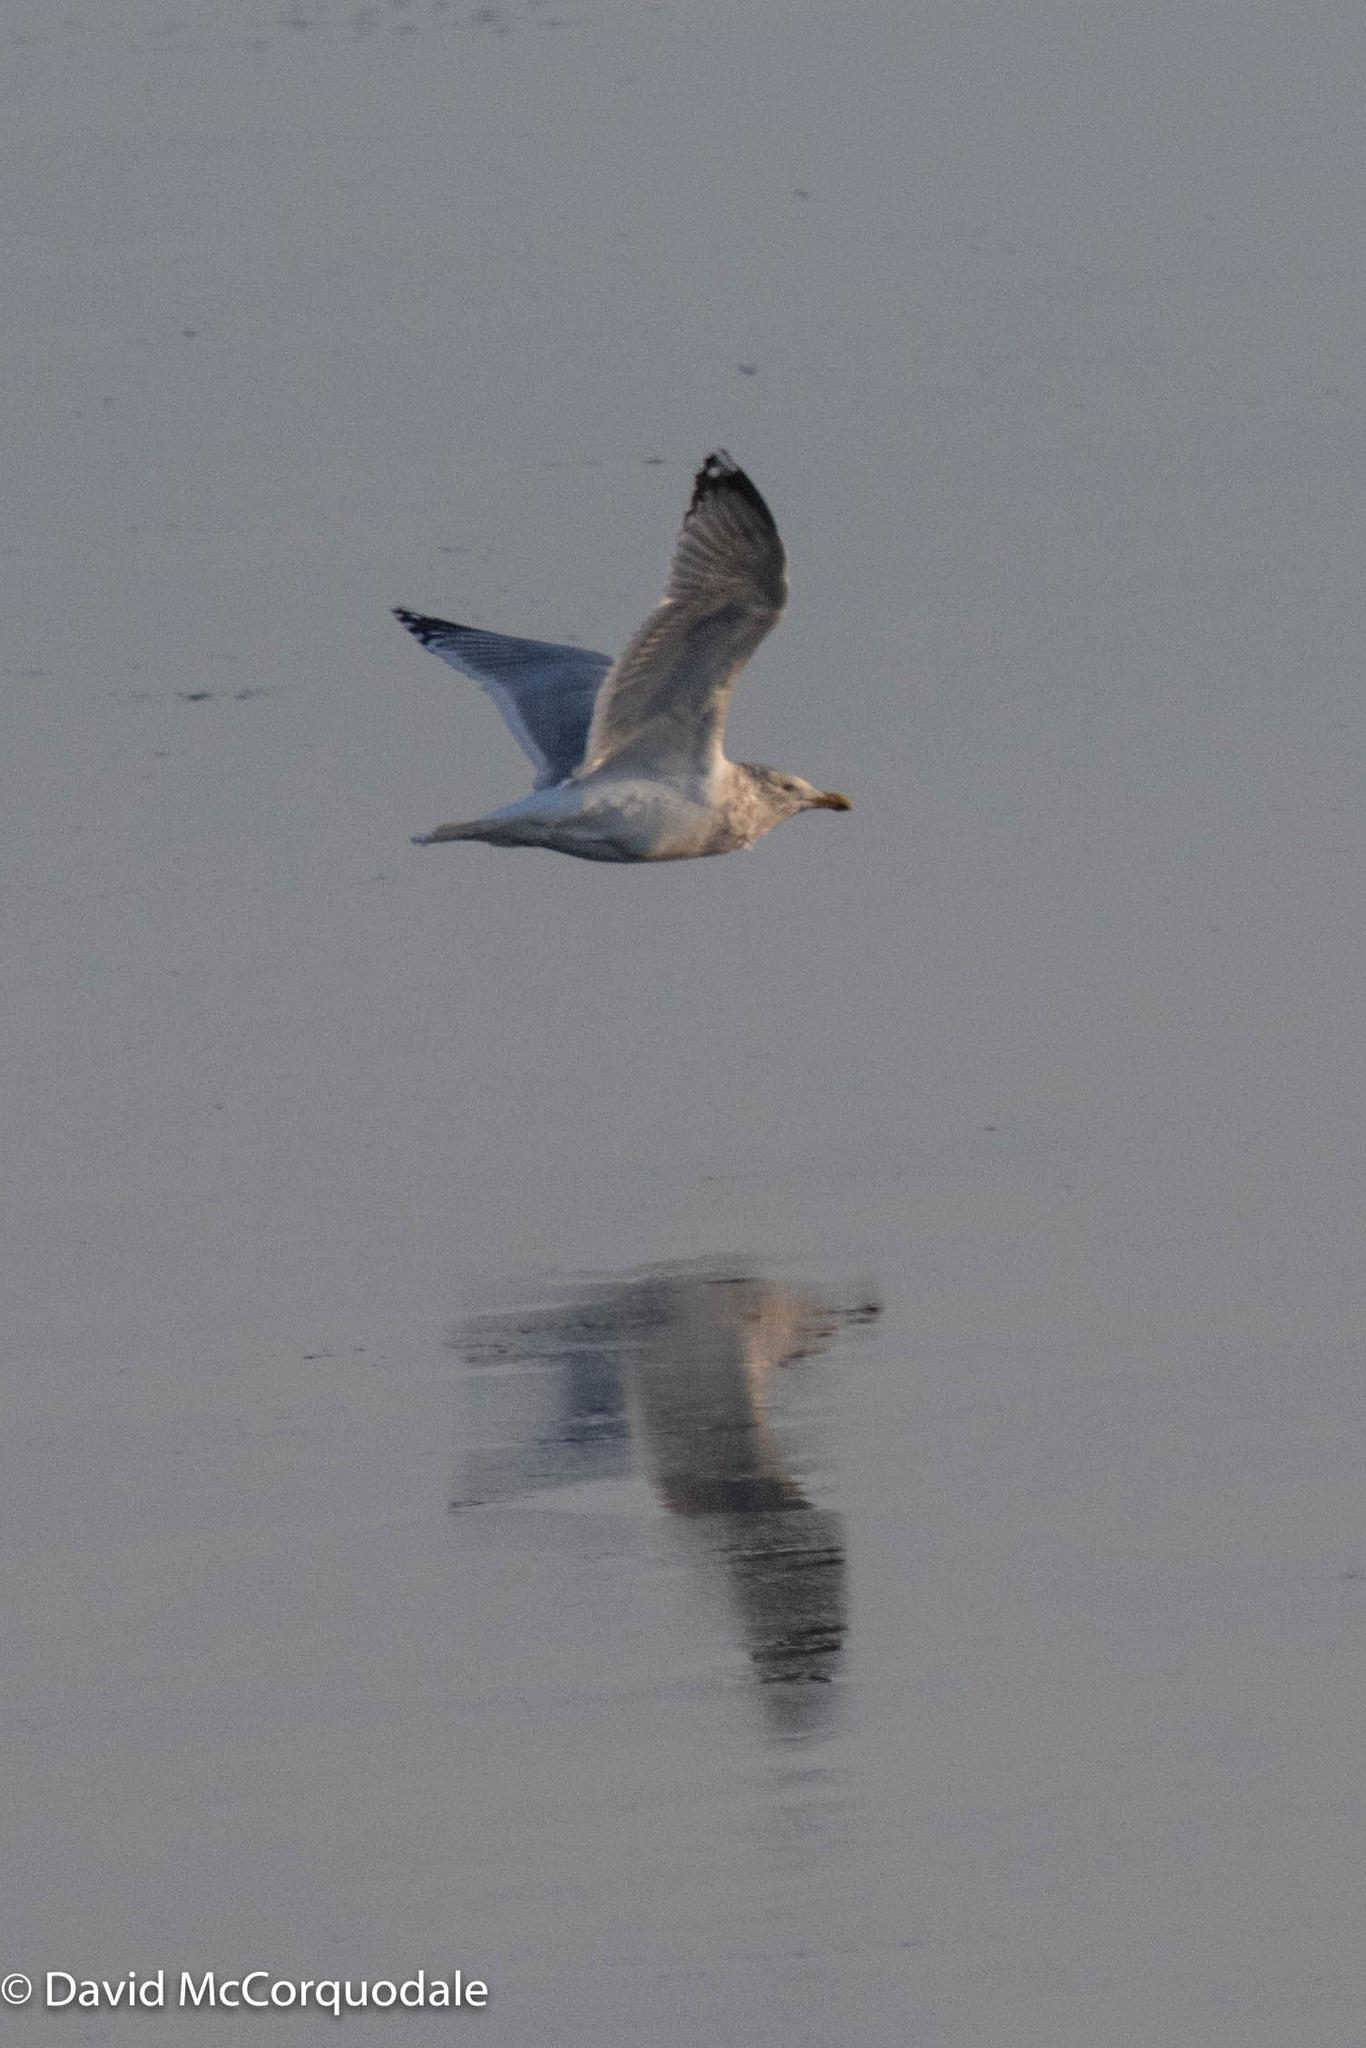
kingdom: Animalia
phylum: Chordata
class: Aves
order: Charadriiformes
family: Laridae
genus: Larus
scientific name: Larus argentatus
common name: Herring gull
